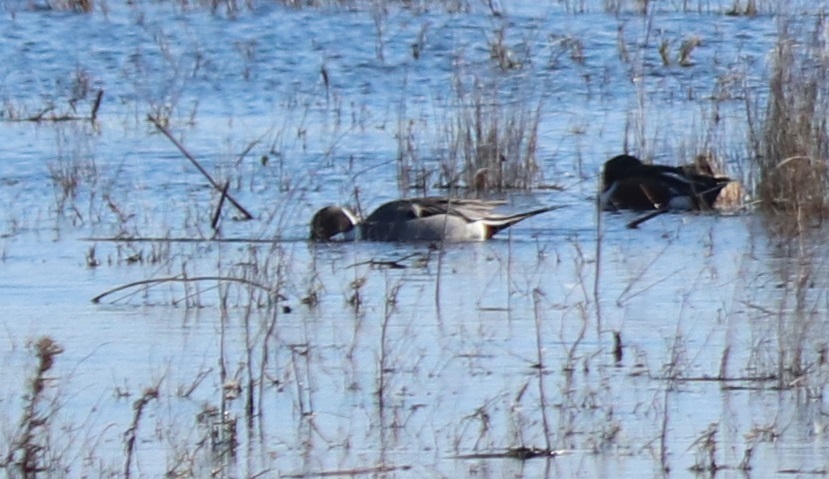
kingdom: Animalia
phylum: Chordata
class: Aves
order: Anseriformes
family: Anatidae
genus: Anas
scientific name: Anas acuta
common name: Northern pintail
